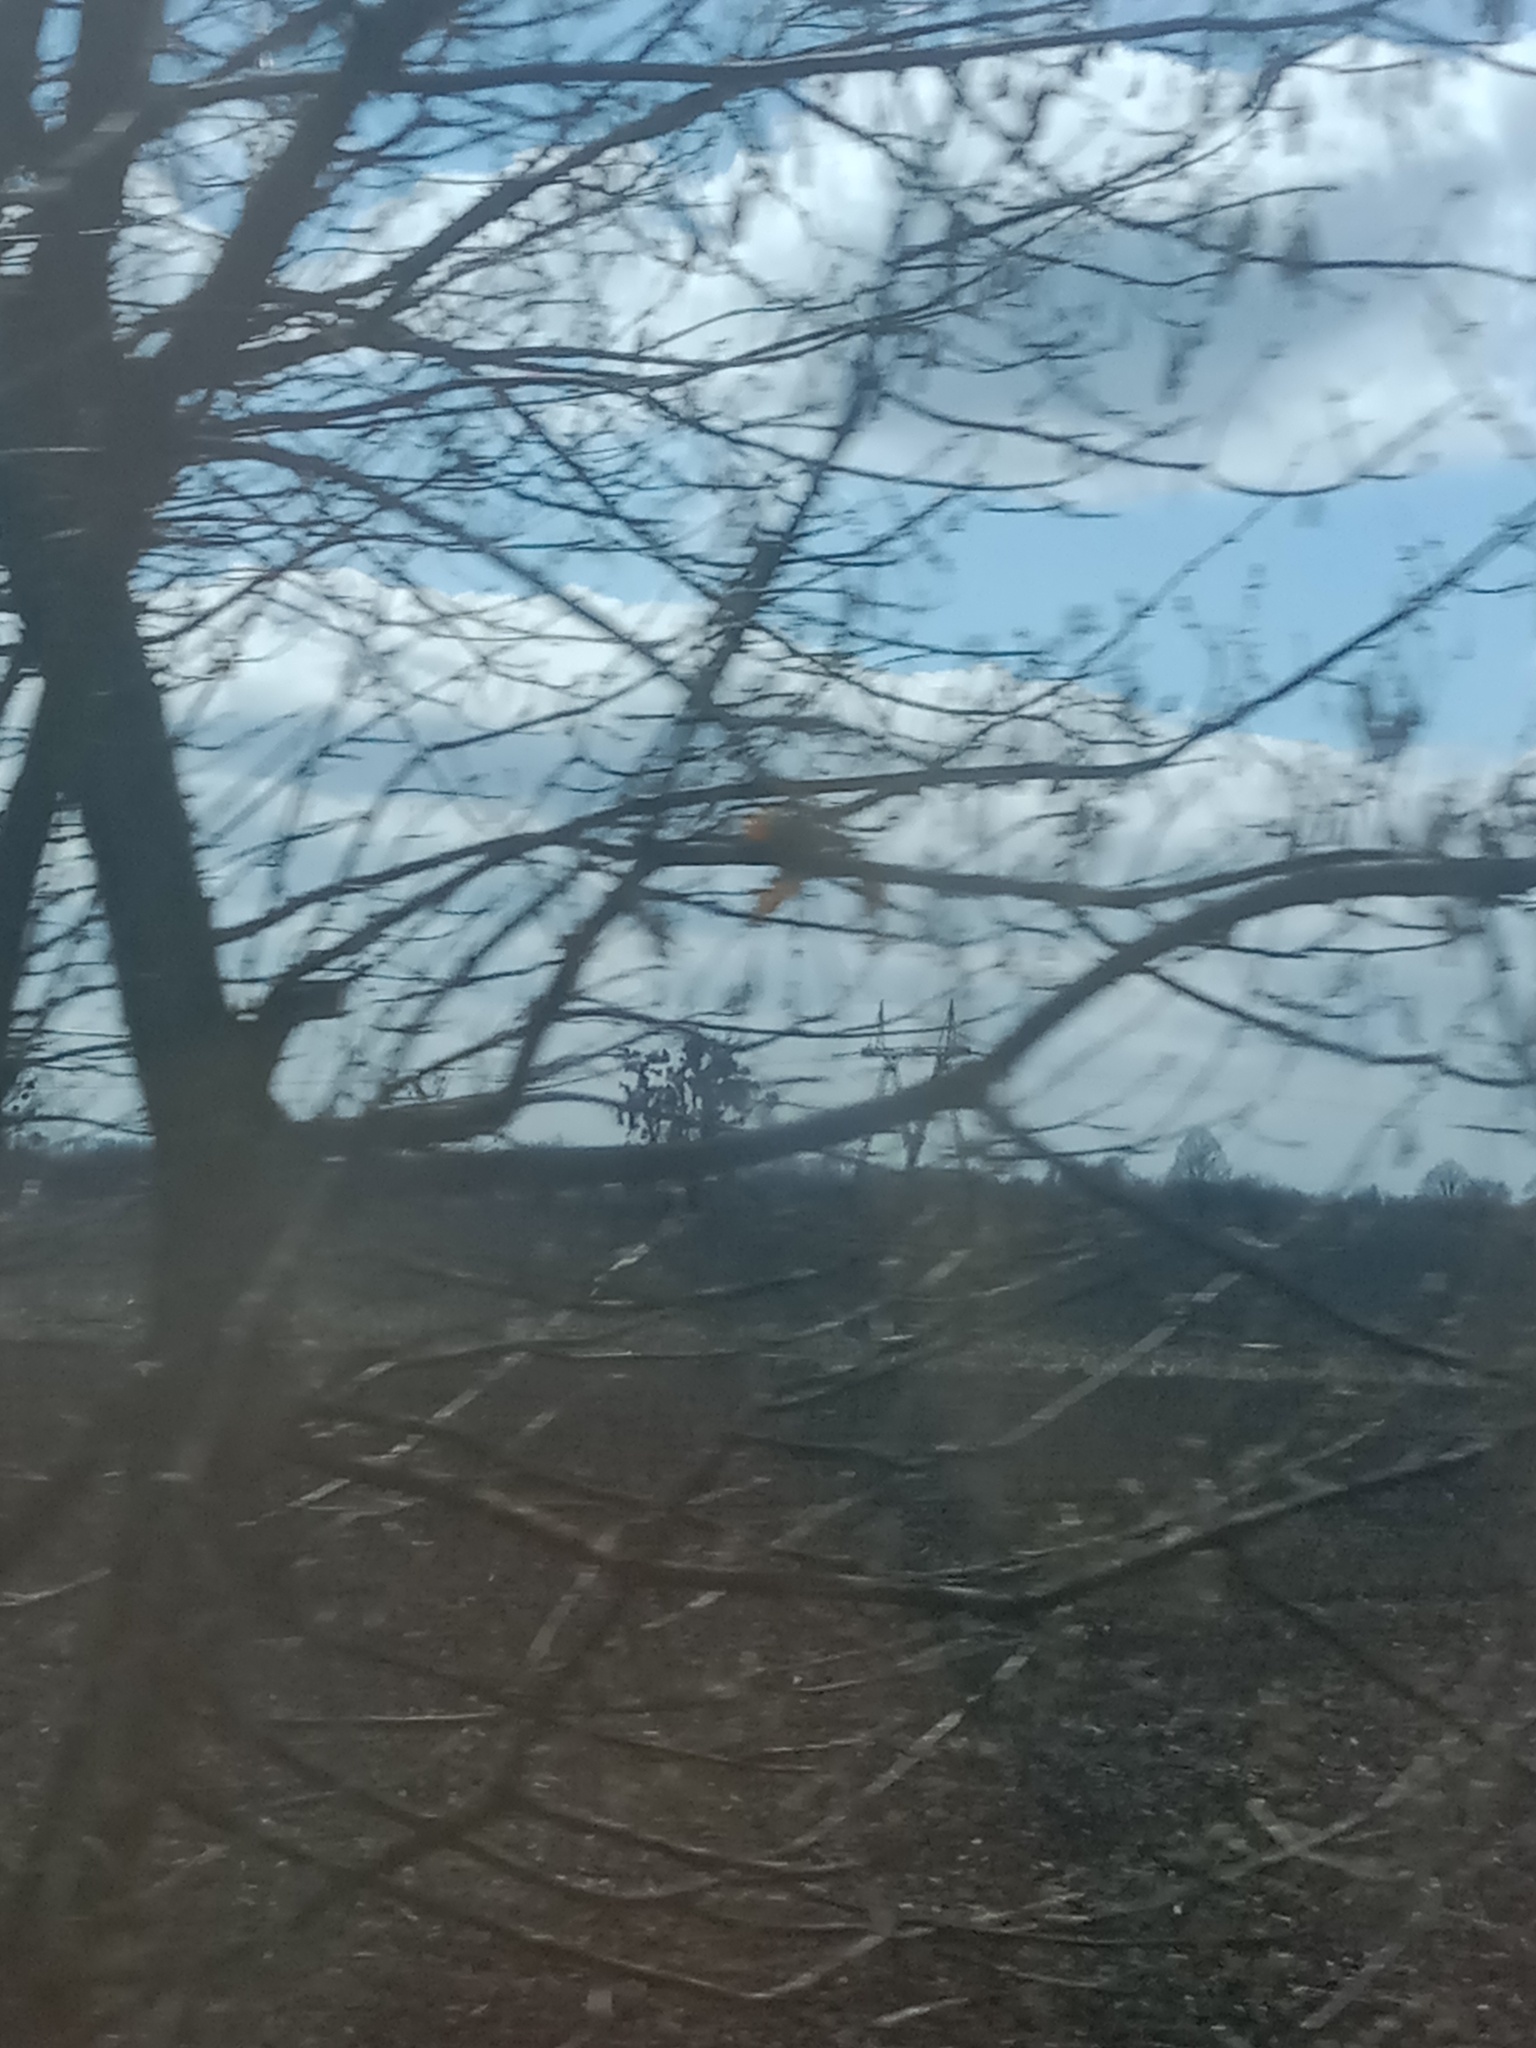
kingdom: Plantae
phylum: Tracheophyta
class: Magnoliopsida
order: Santalales
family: Viscaceae
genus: Viscum
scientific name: Viscum album
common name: Mistletoe
